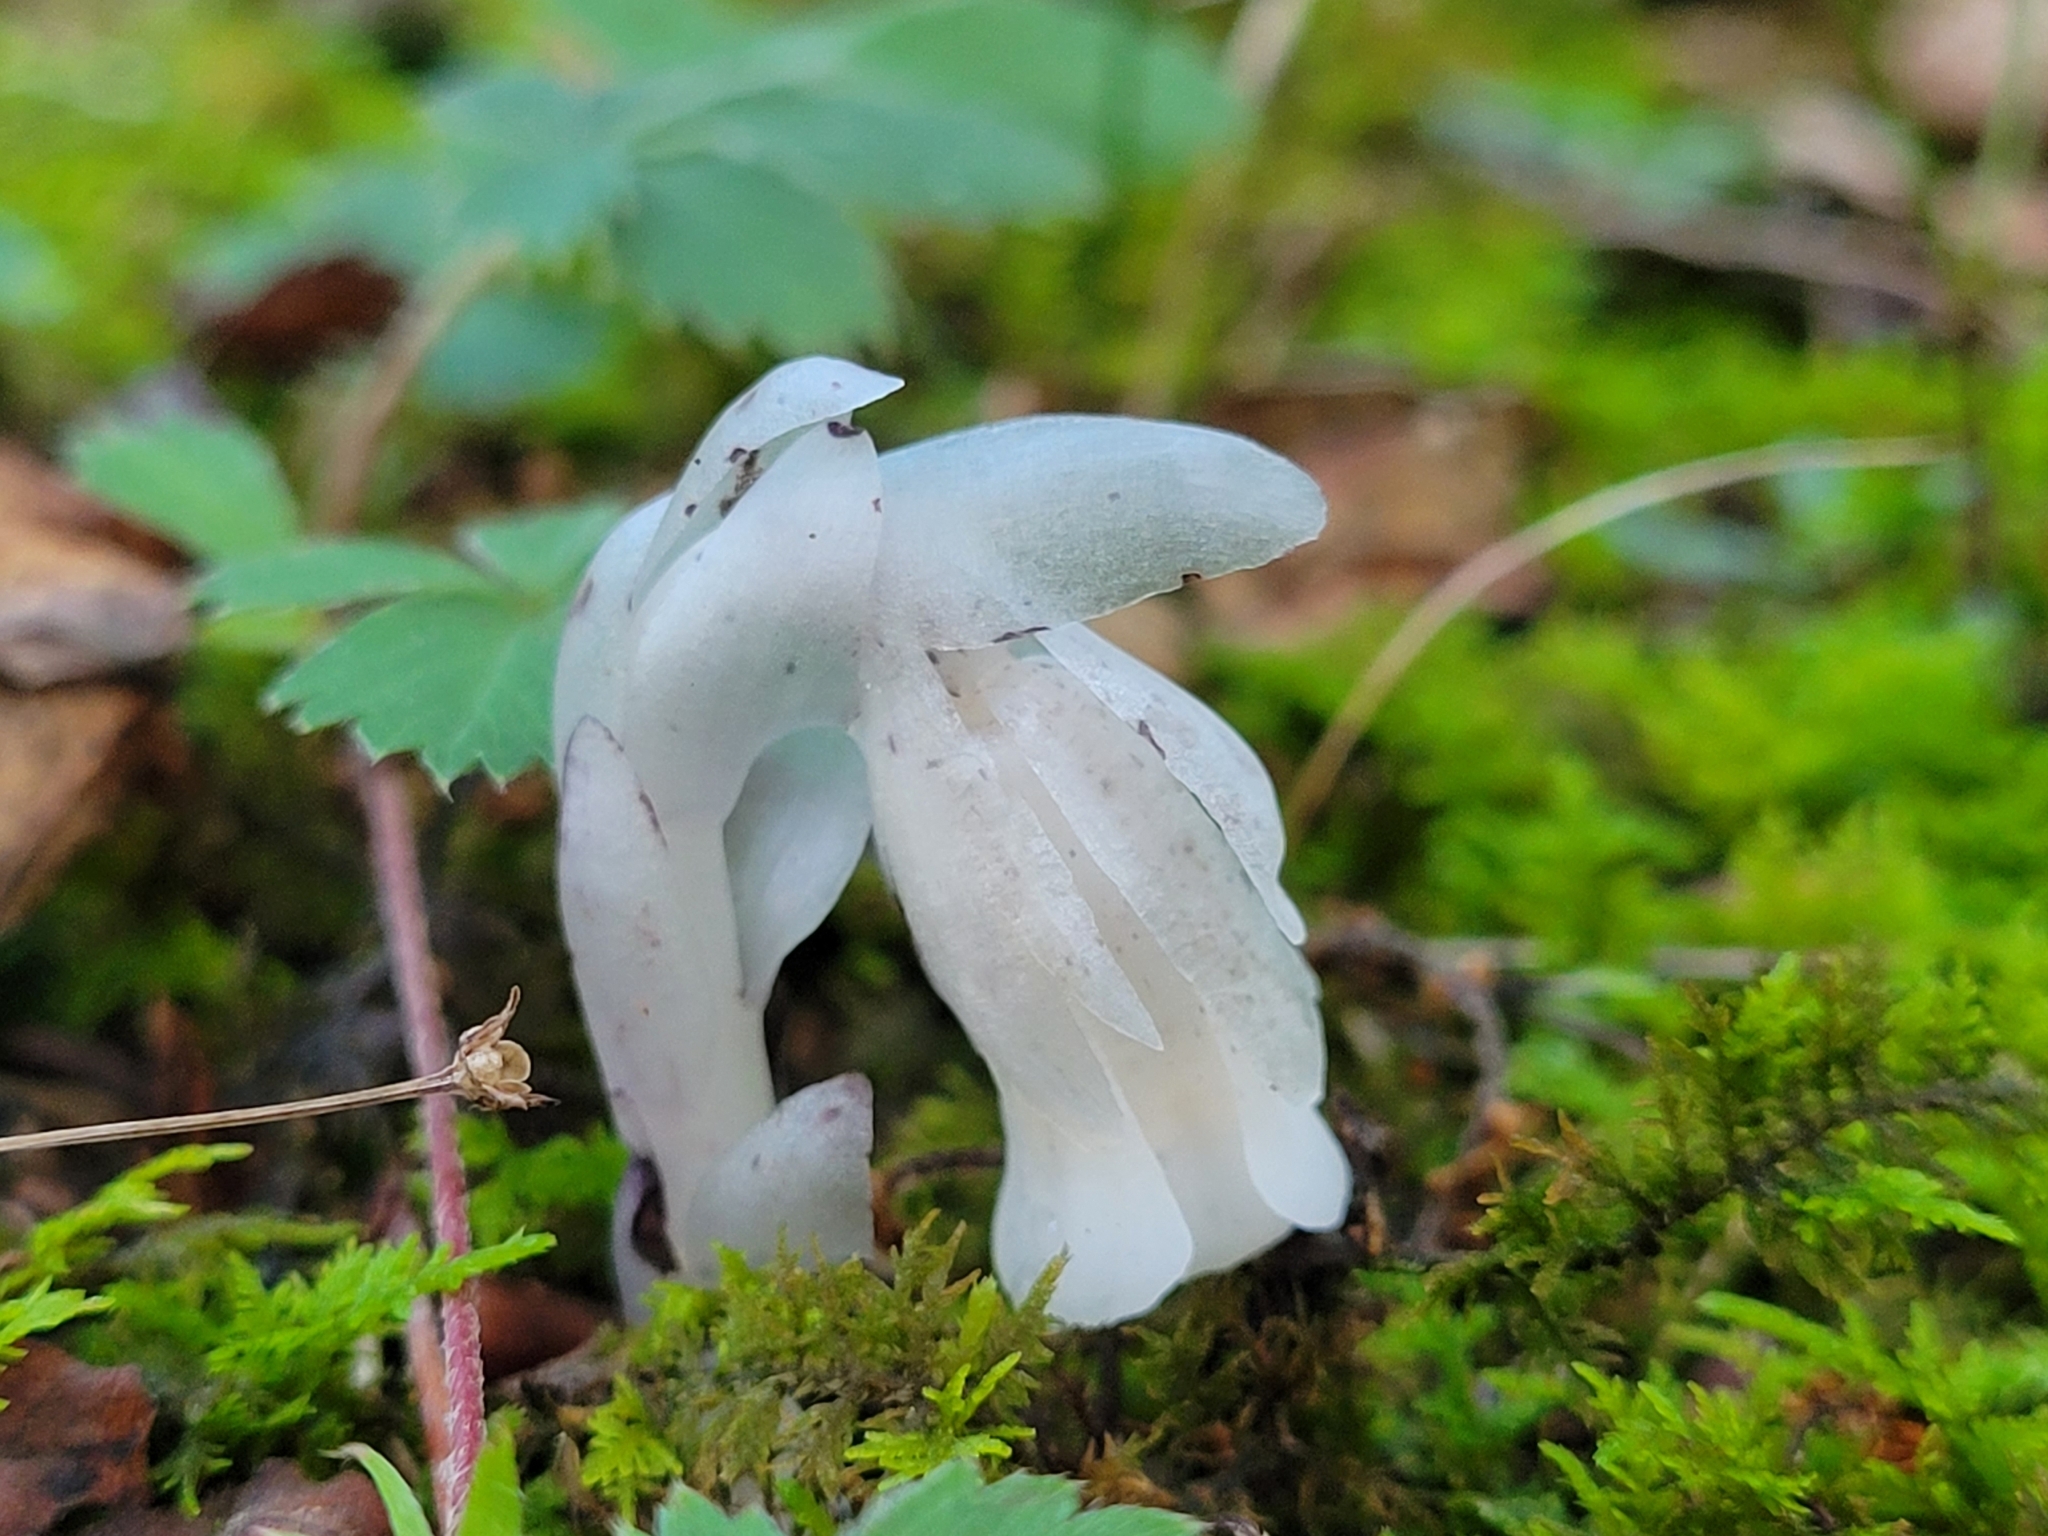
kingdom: Plantae
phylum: Tracheophyta
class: Magnoliopsida
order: Ericales
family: Ericaceae
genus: Monotropa
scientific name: Monotropa uniflora
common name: Convulsion root
